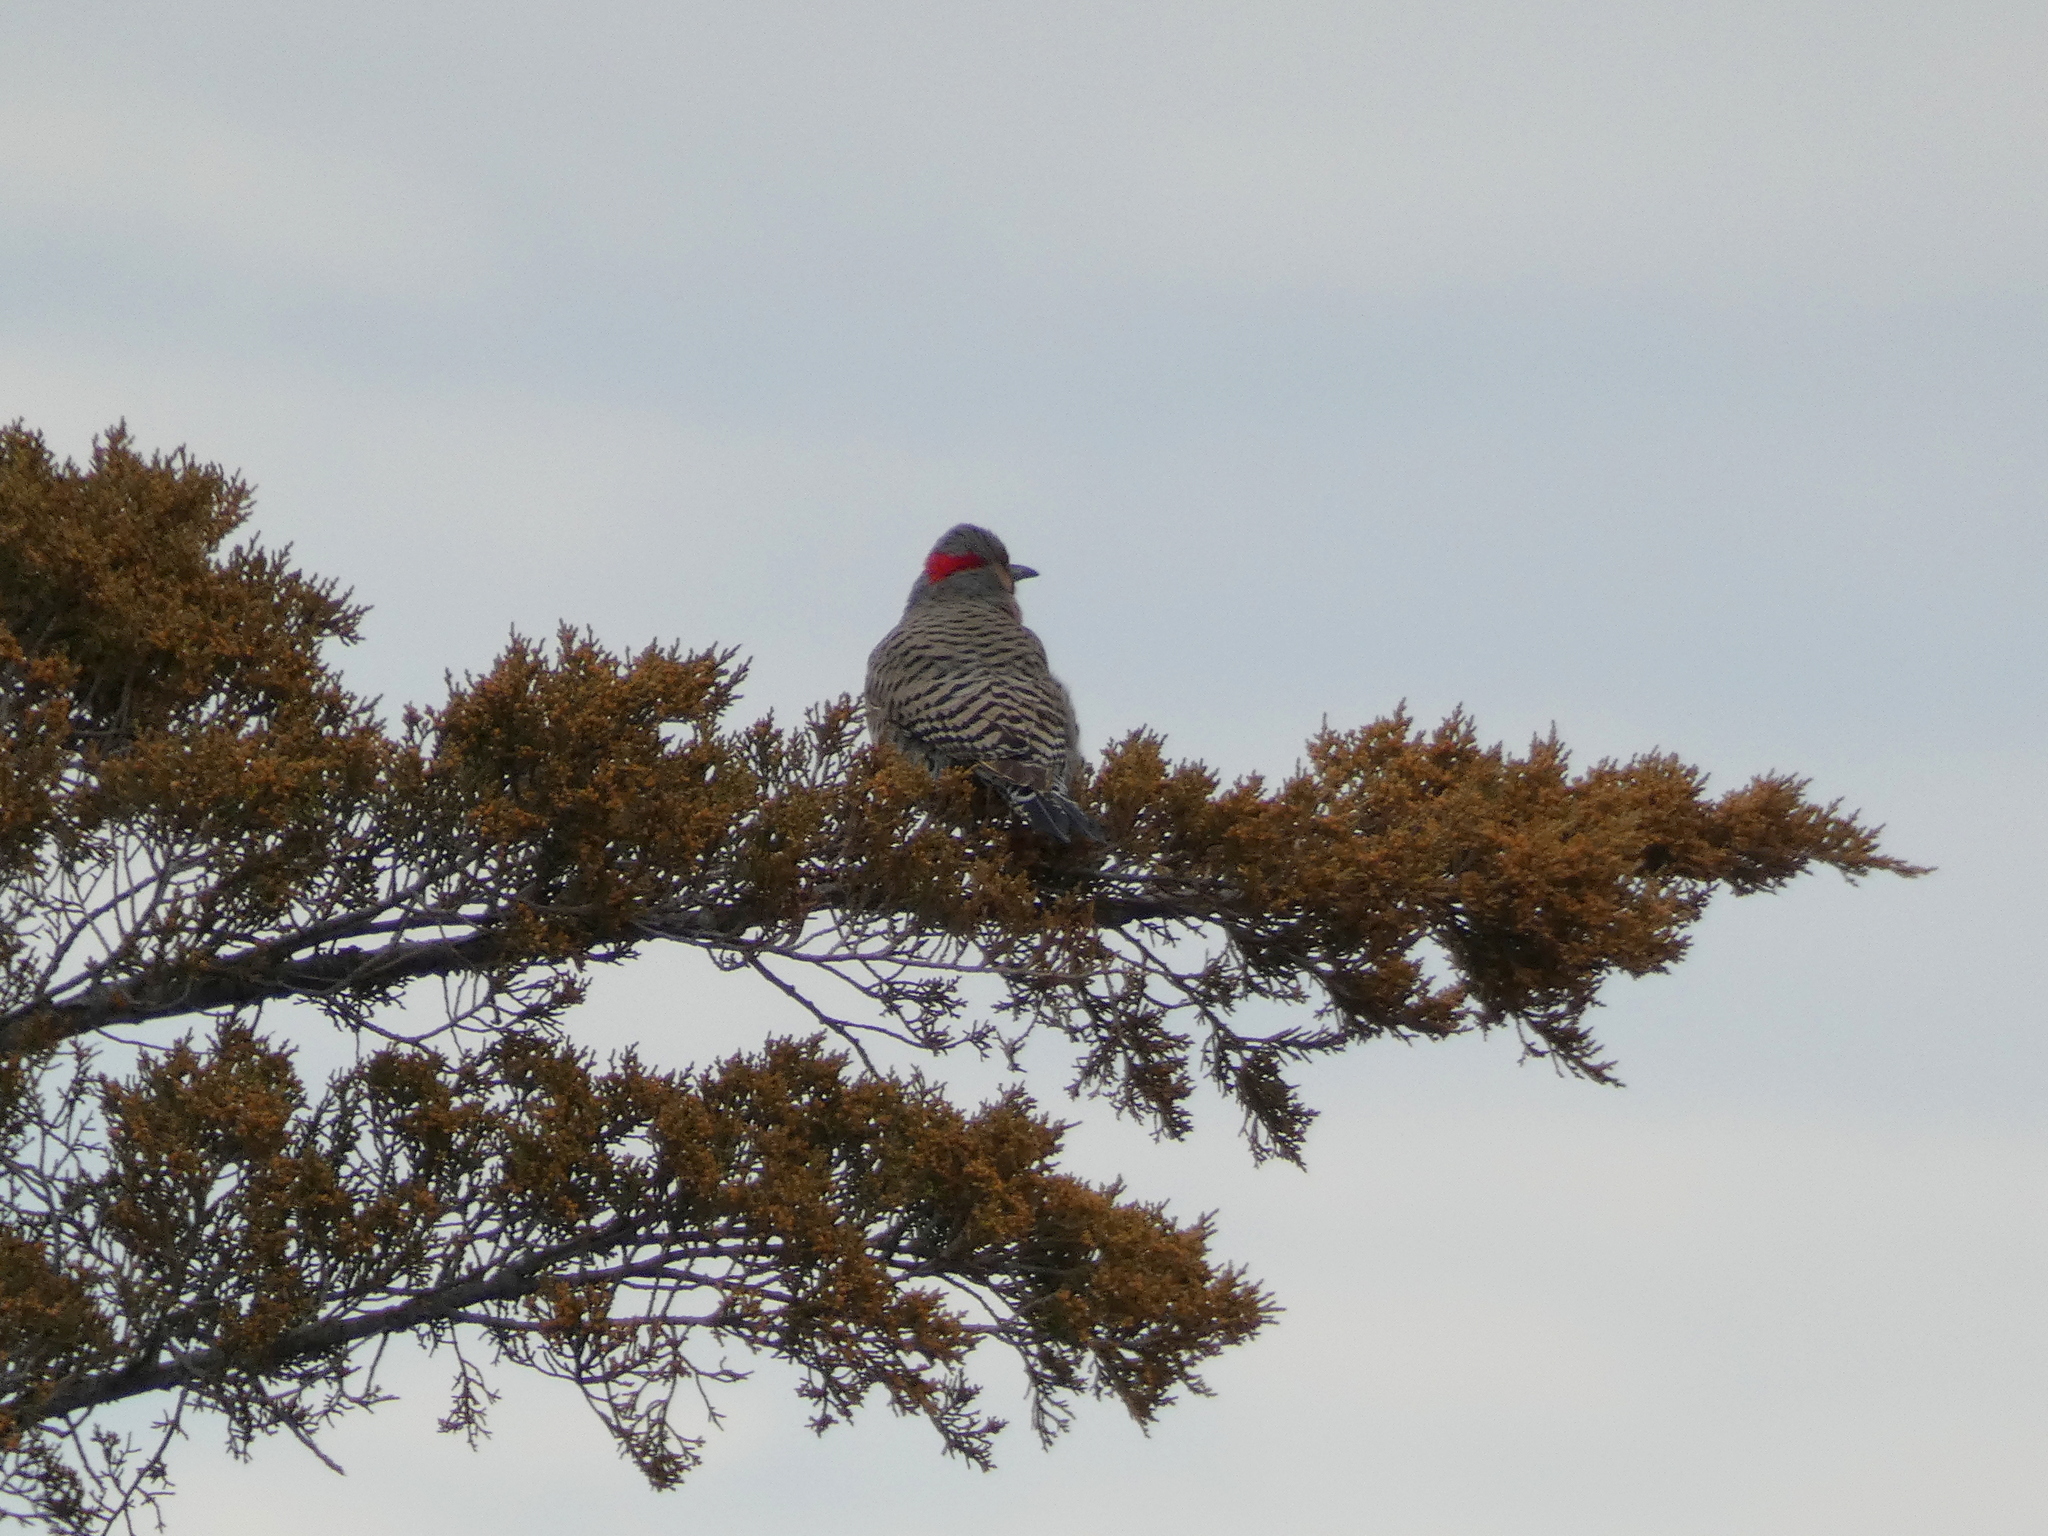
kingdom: Animalia
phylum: Chordata
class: Aves
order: Piciformes
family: Picidae
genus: Colaptes
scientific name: Colaptes auratus
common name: Northern flicker
